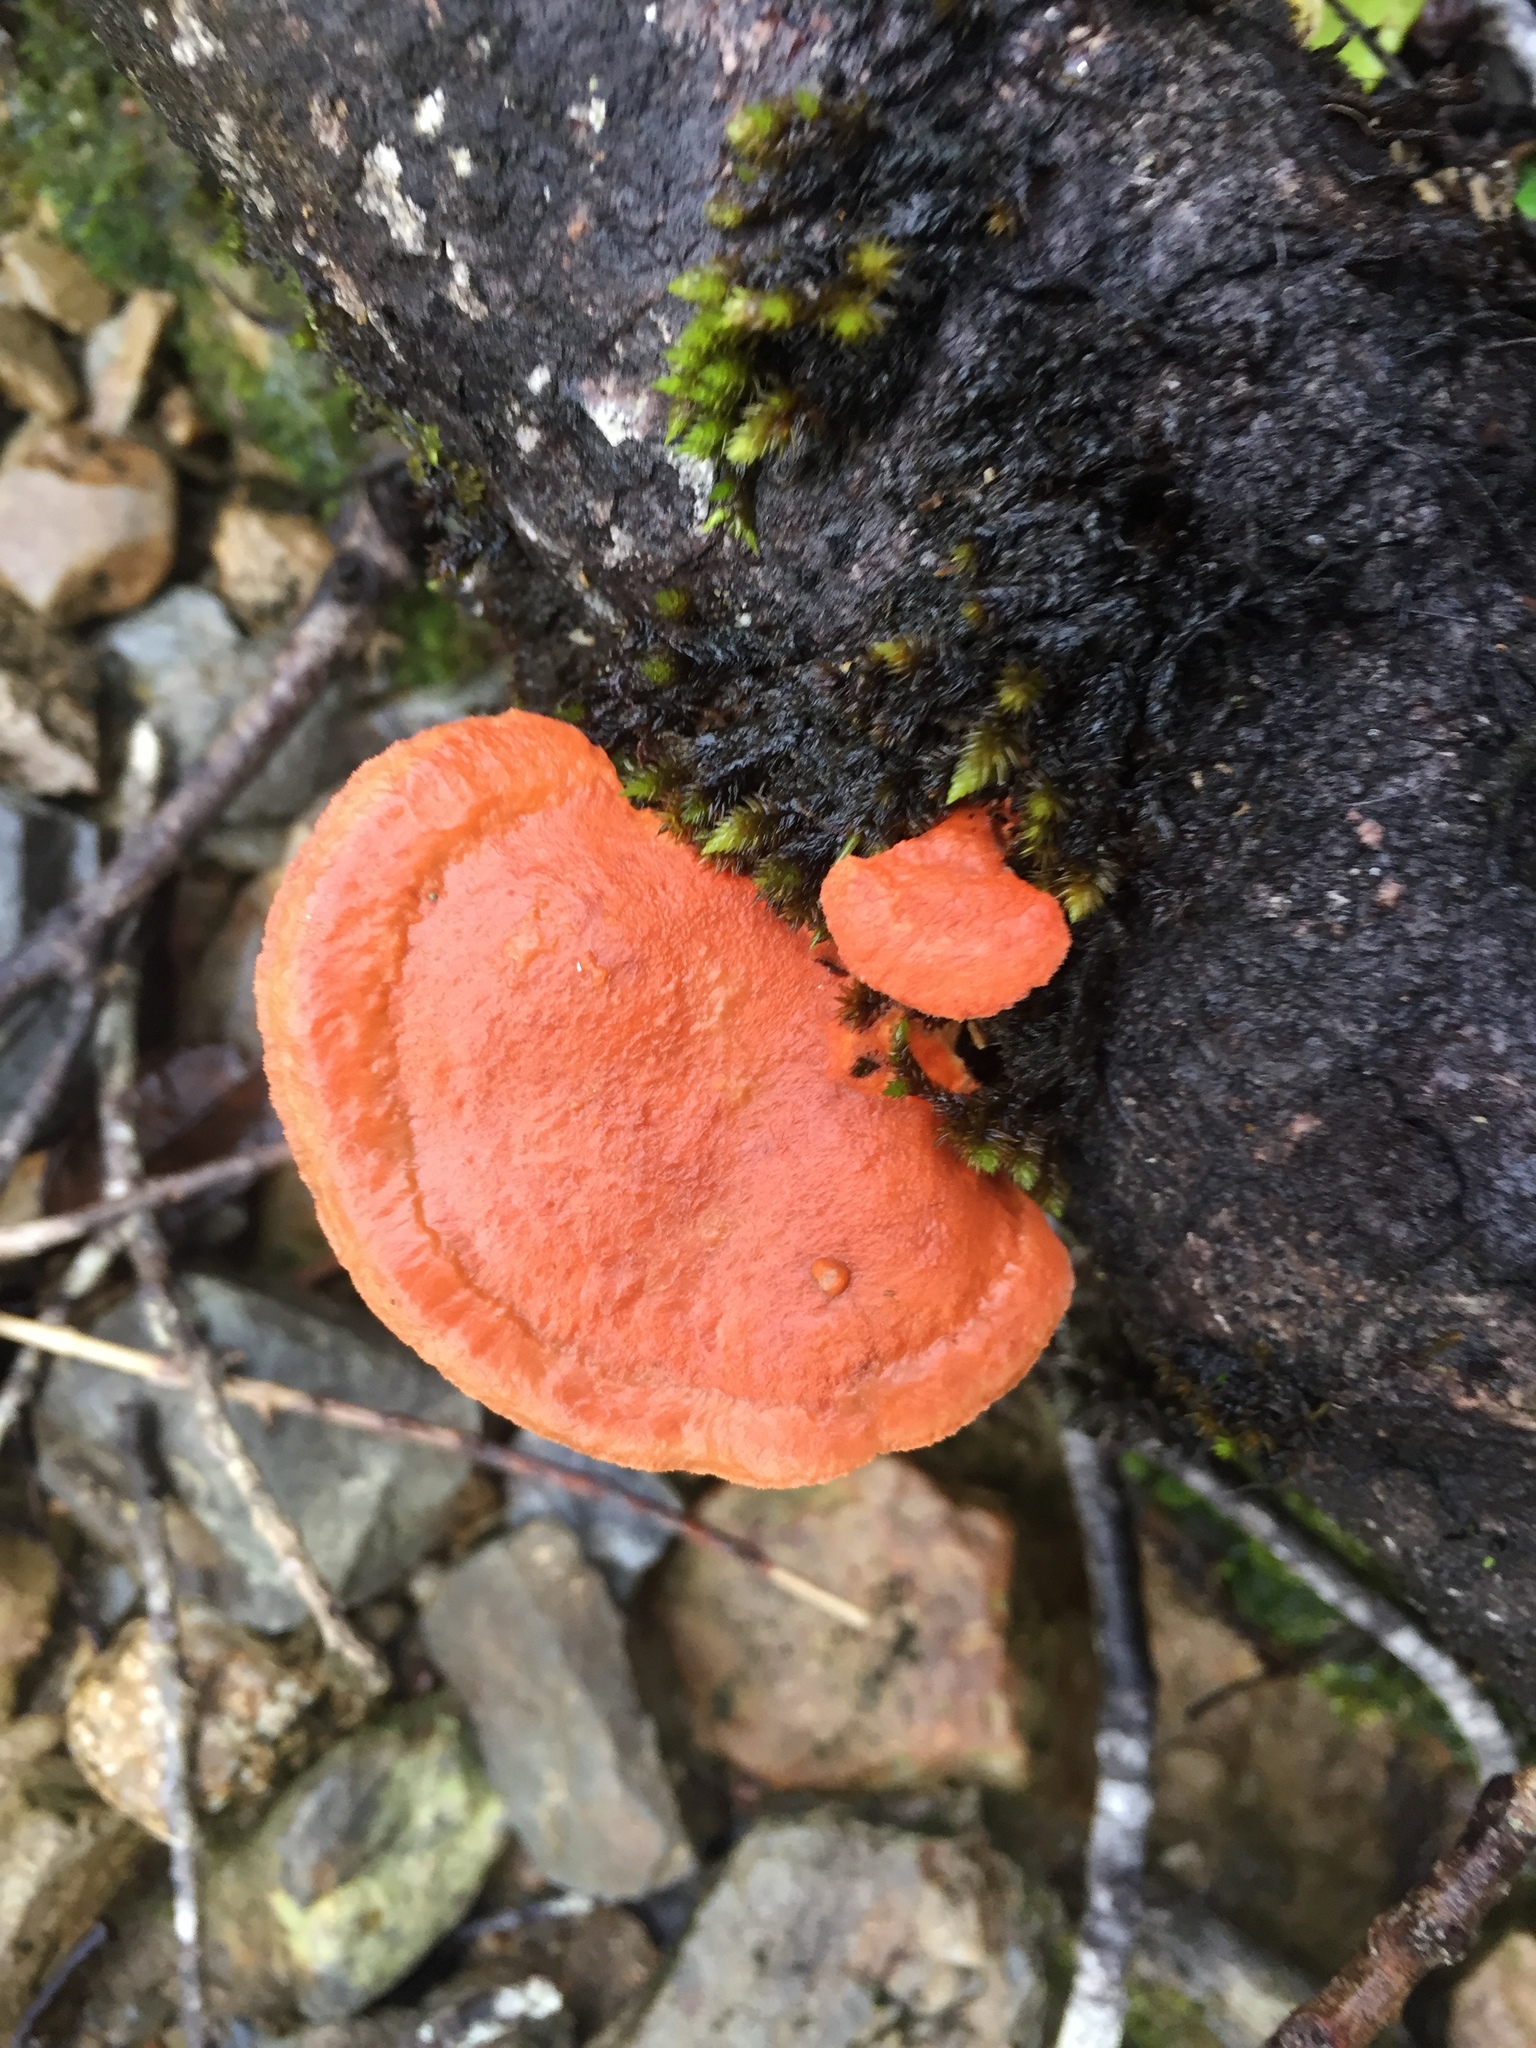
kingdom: Fungi
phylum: Basidiomycota
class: Agaricomycetes
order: Polyporales
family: Polyporaceae
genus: Trametes
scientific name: Trametes coccinea
